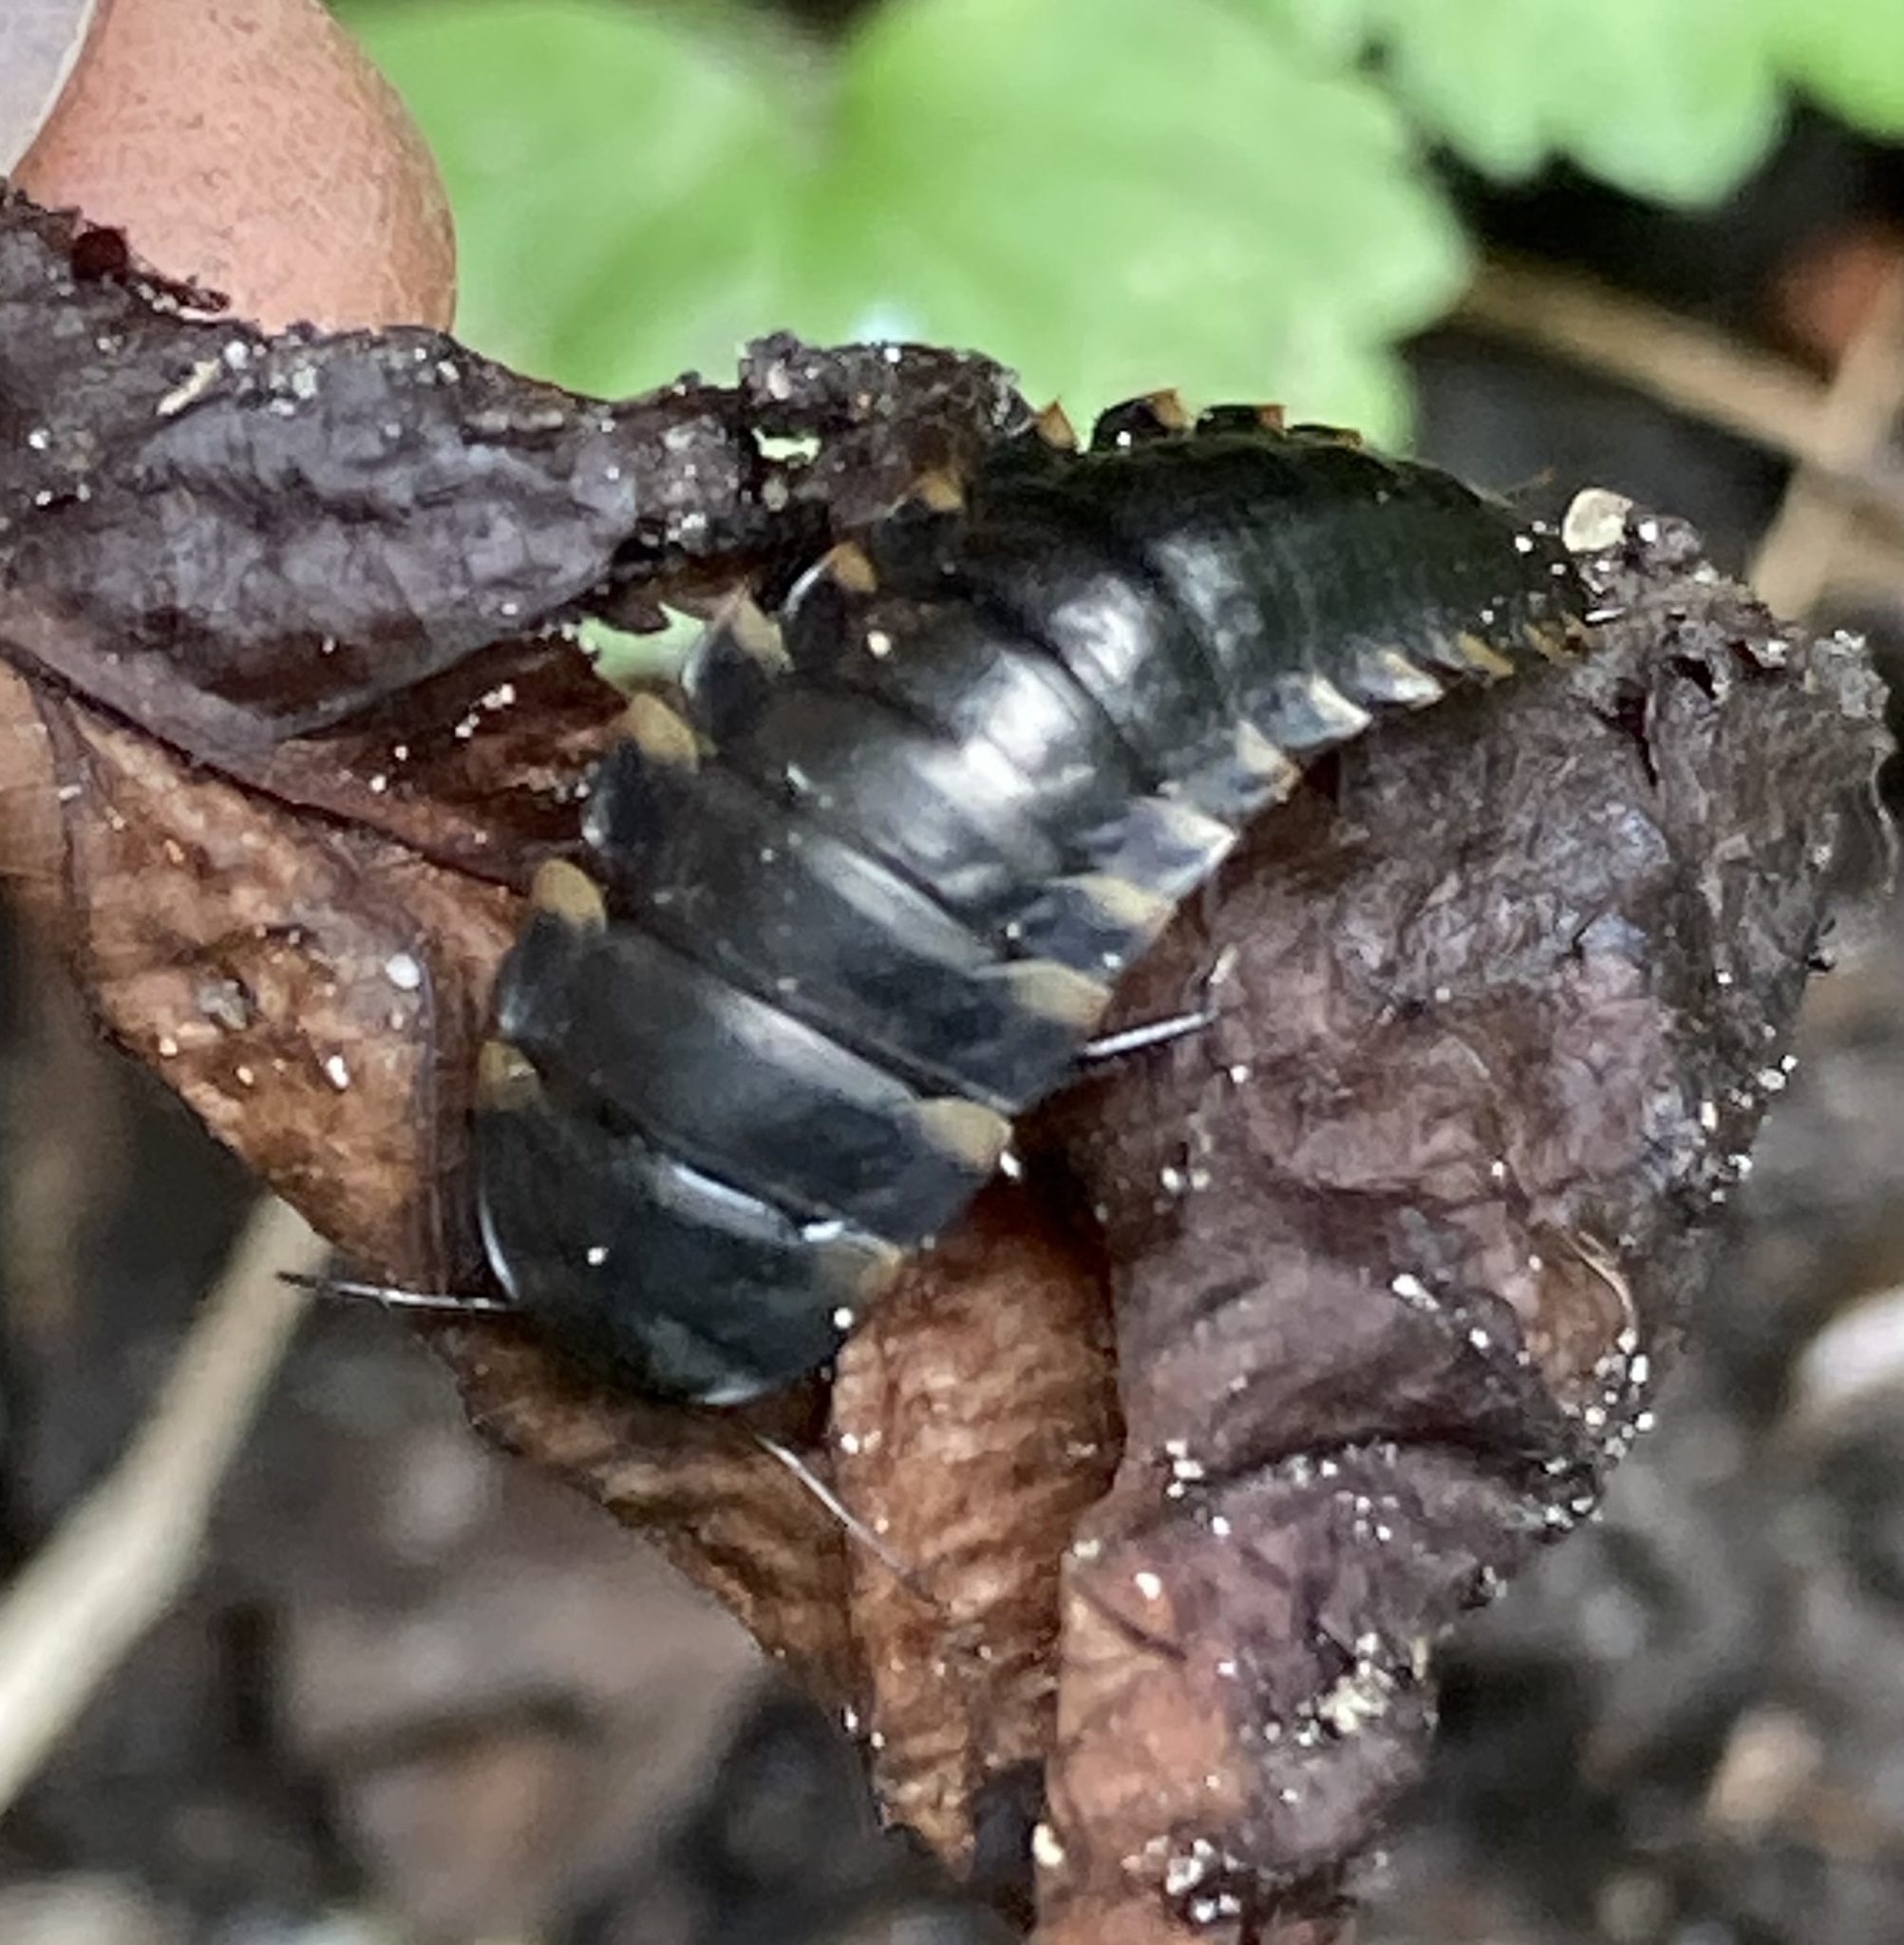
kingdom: Animalia
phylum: Arthropoda
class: Insecta
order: Coleoptera
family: Staphylinidae
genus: Silpha
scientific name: Silpha tristis
